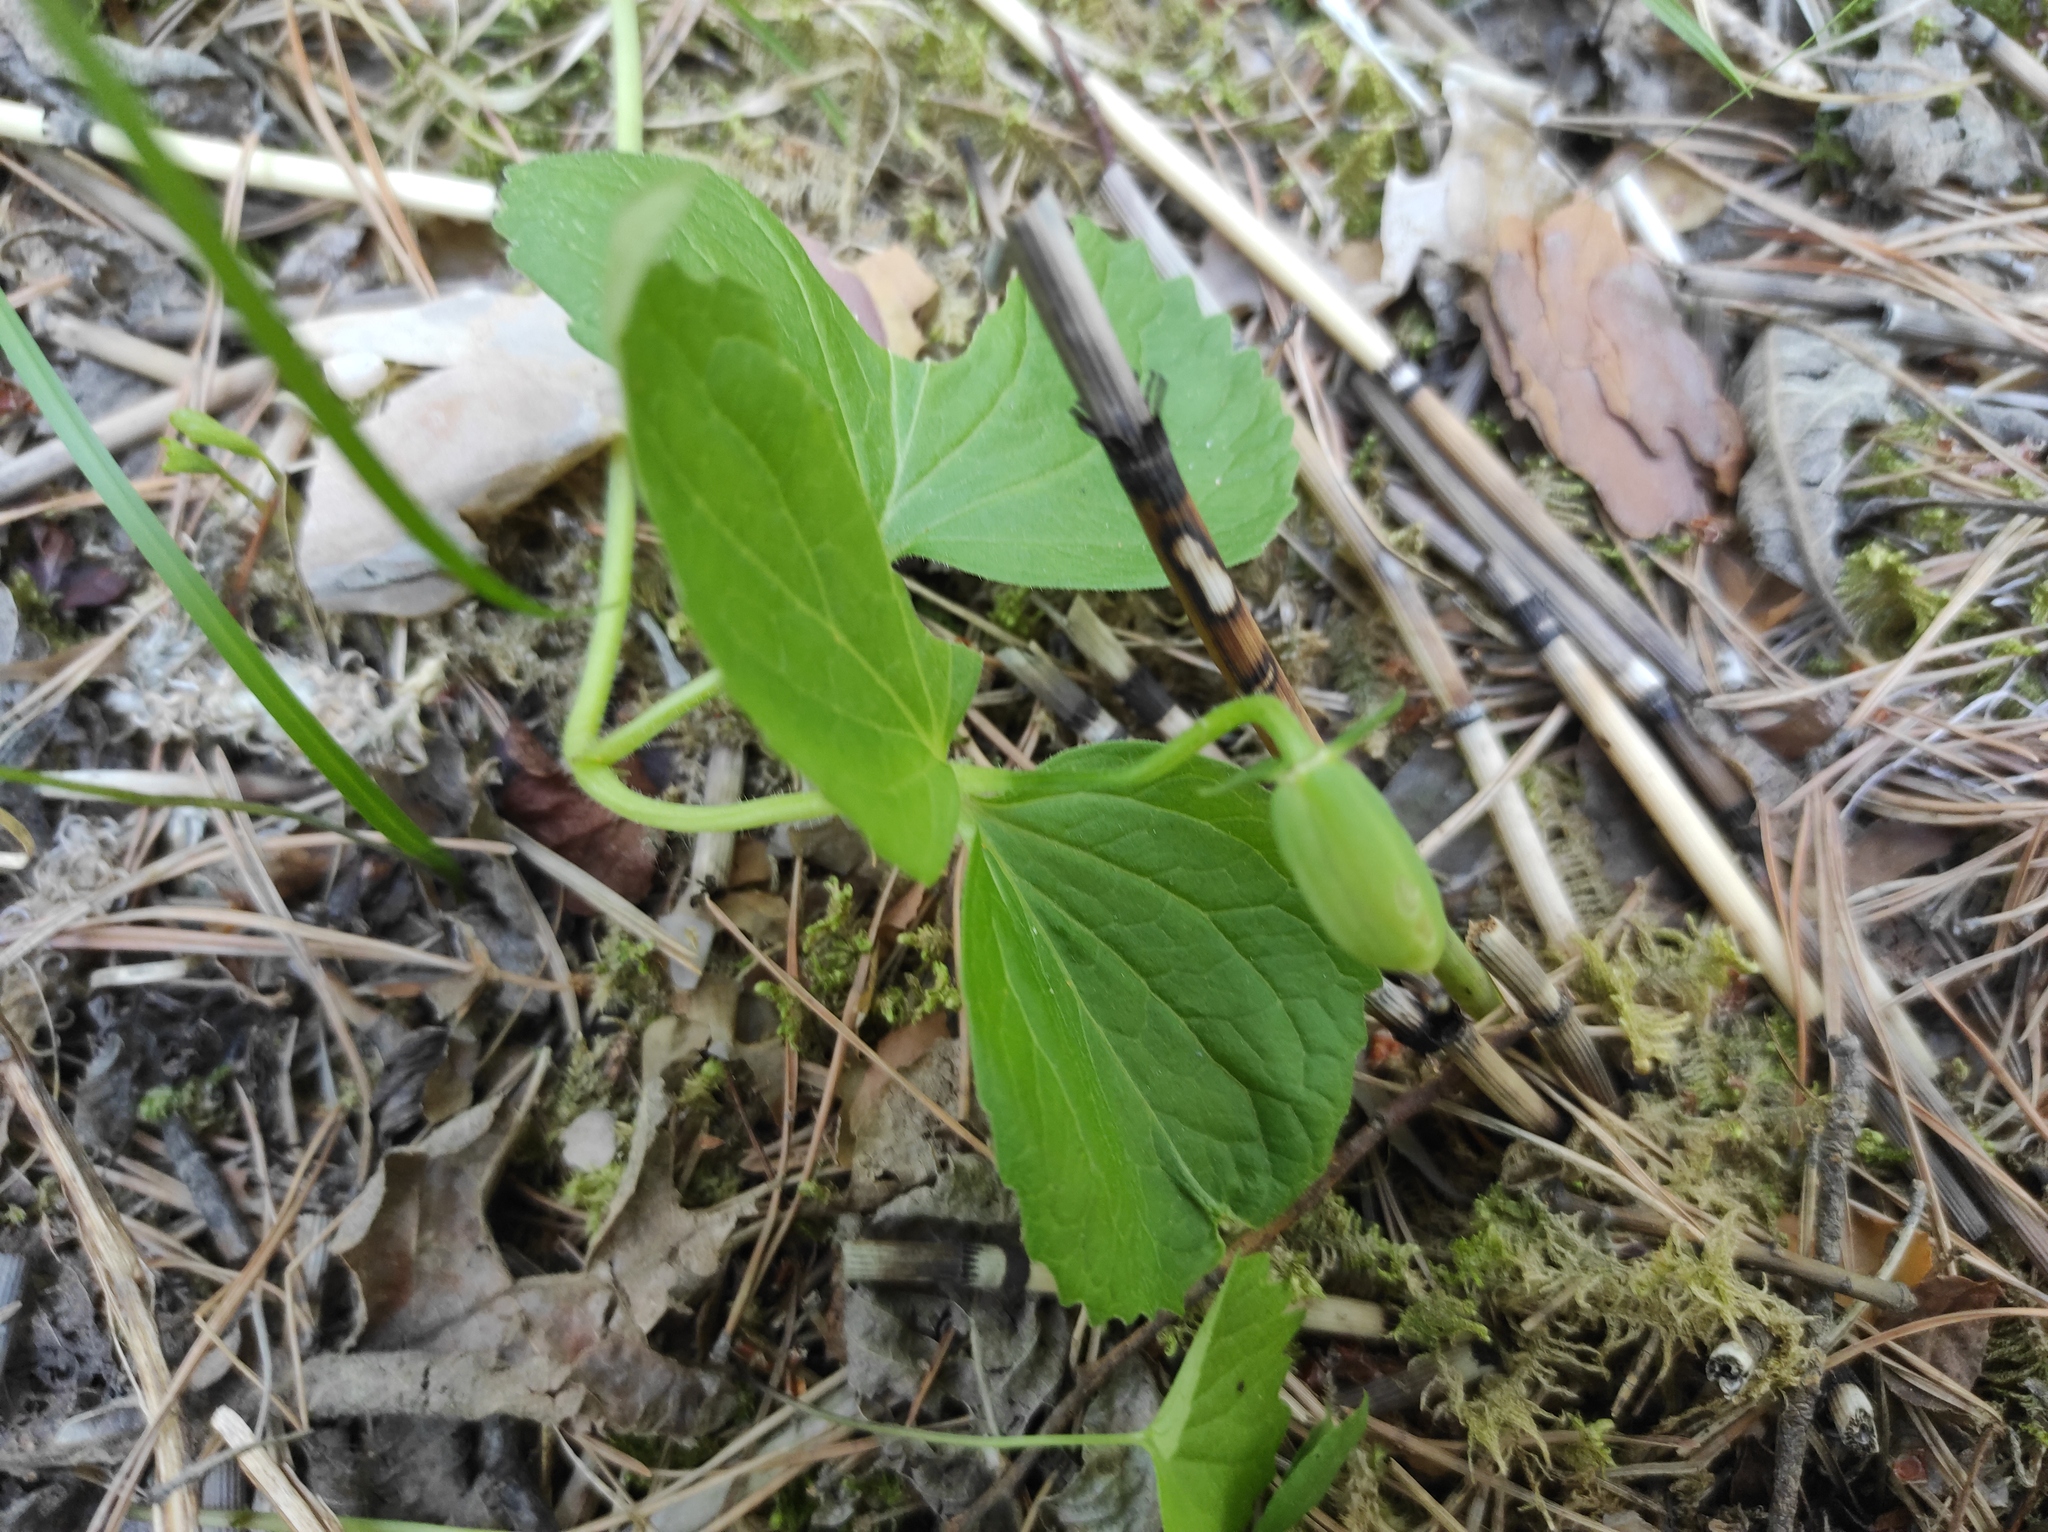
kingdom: Plantae
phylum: Tracheophyta
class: Magnoliopsida
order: Malpighiales
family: Violaceae
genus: Viola
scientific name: Viola uniflora
